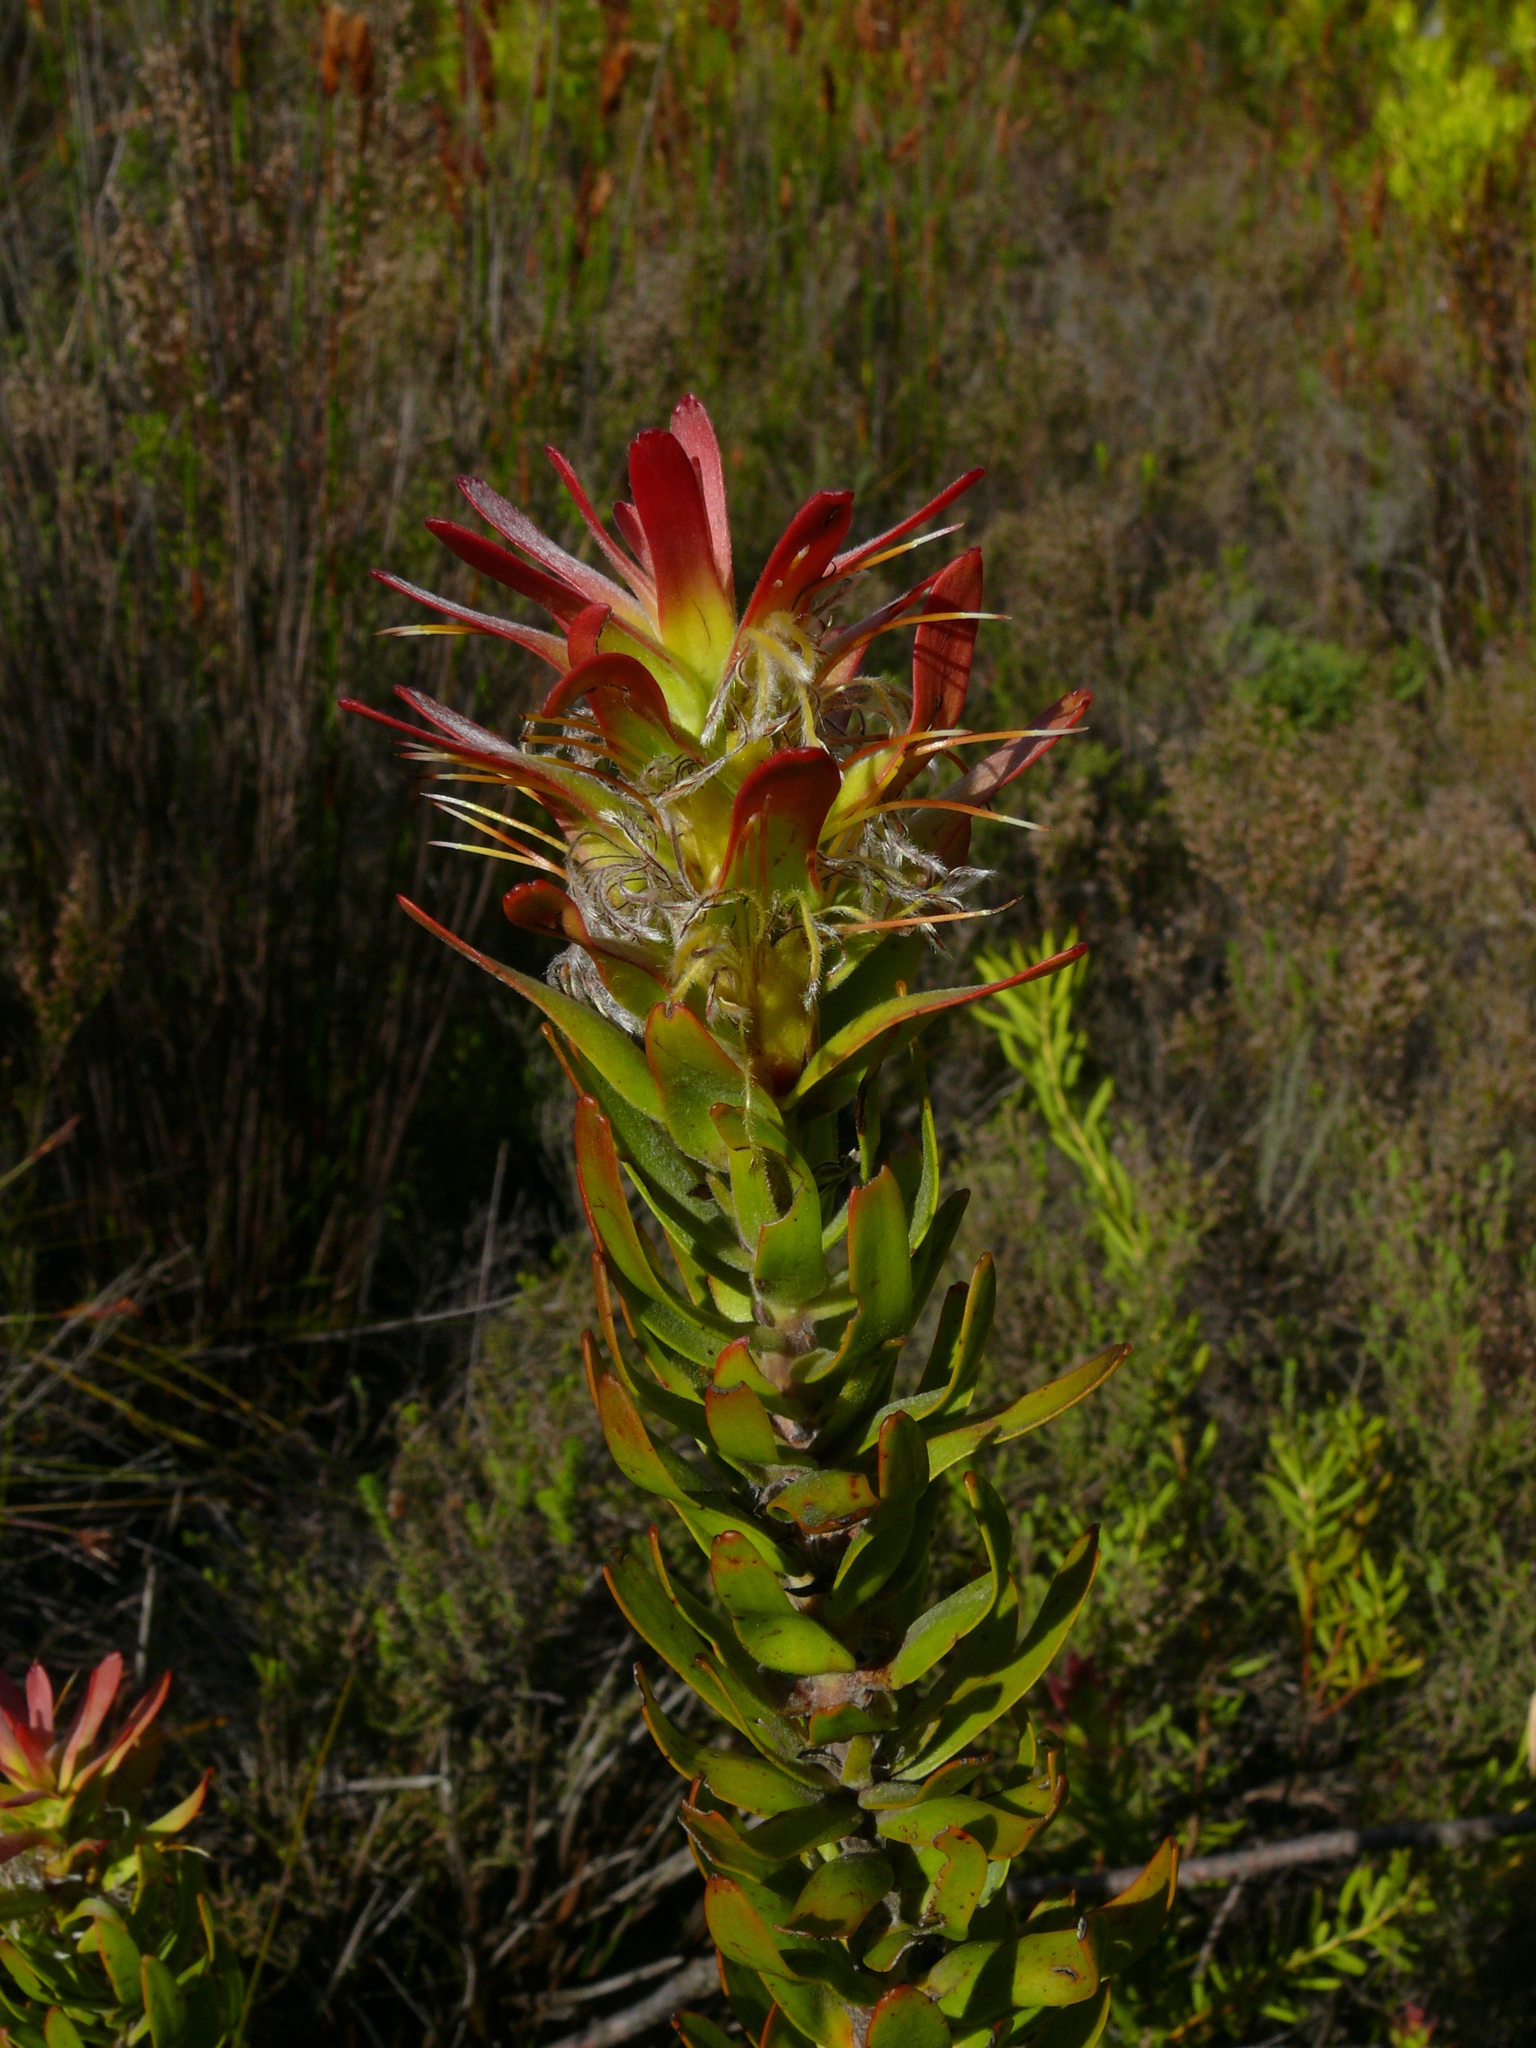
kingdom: Plantae
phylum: Tracheophyta
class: Magnoliopsida
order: Proteales
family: Proteaceae
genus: Mimetes
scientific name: Mimetes cucullatus
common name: Common pagoda
